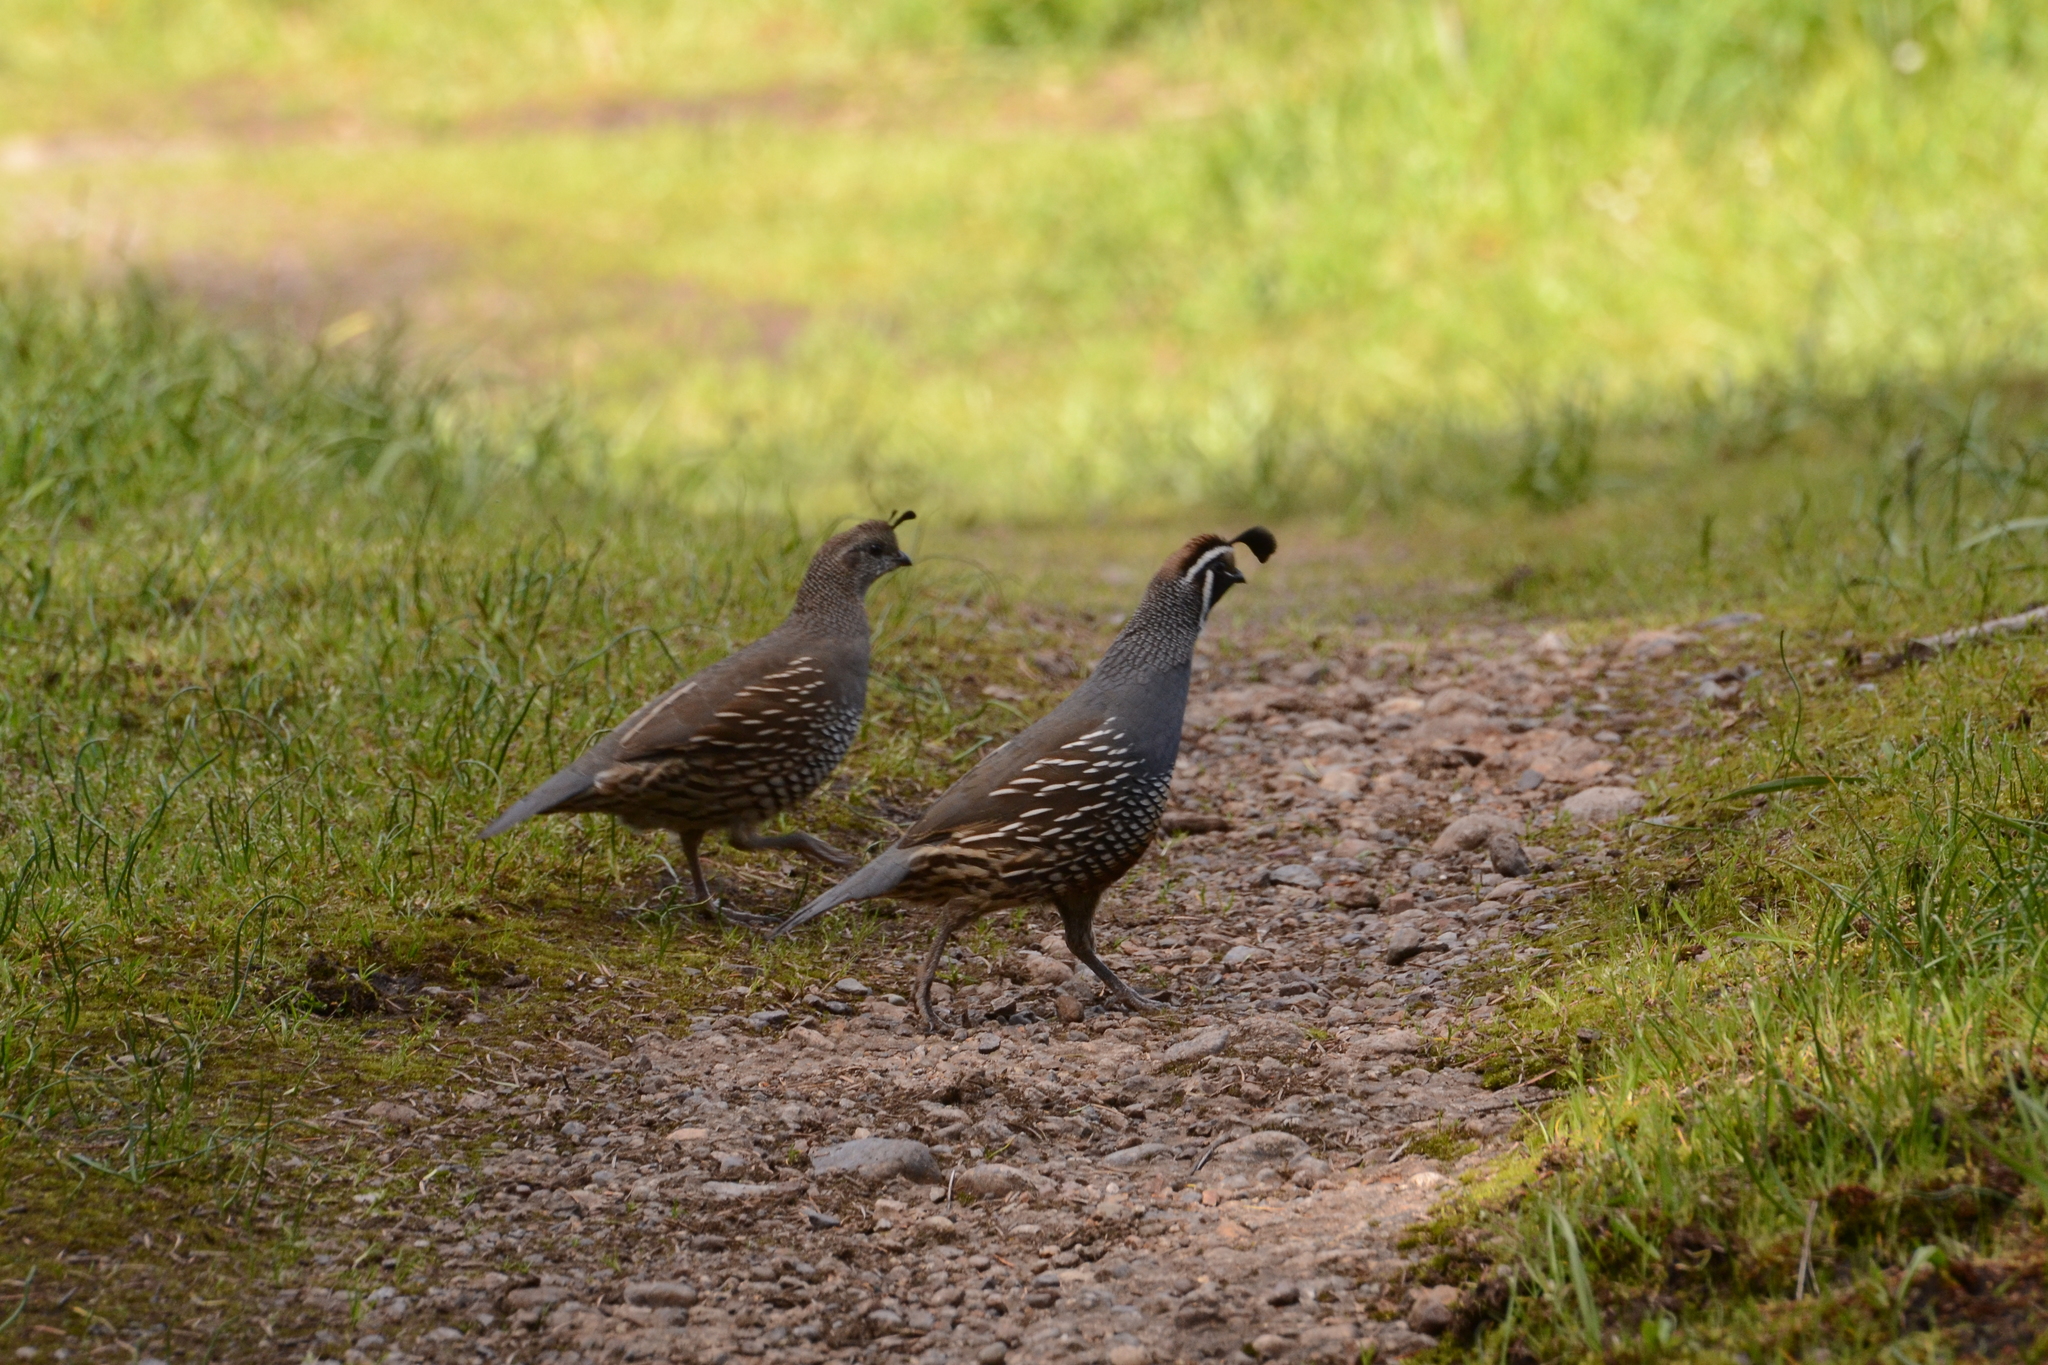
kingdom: Animalia
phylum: Chordata
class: Aves
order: Galliformes
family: Odontophoridae
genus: Callipepla
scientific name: Callipepla californica
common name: California quail
